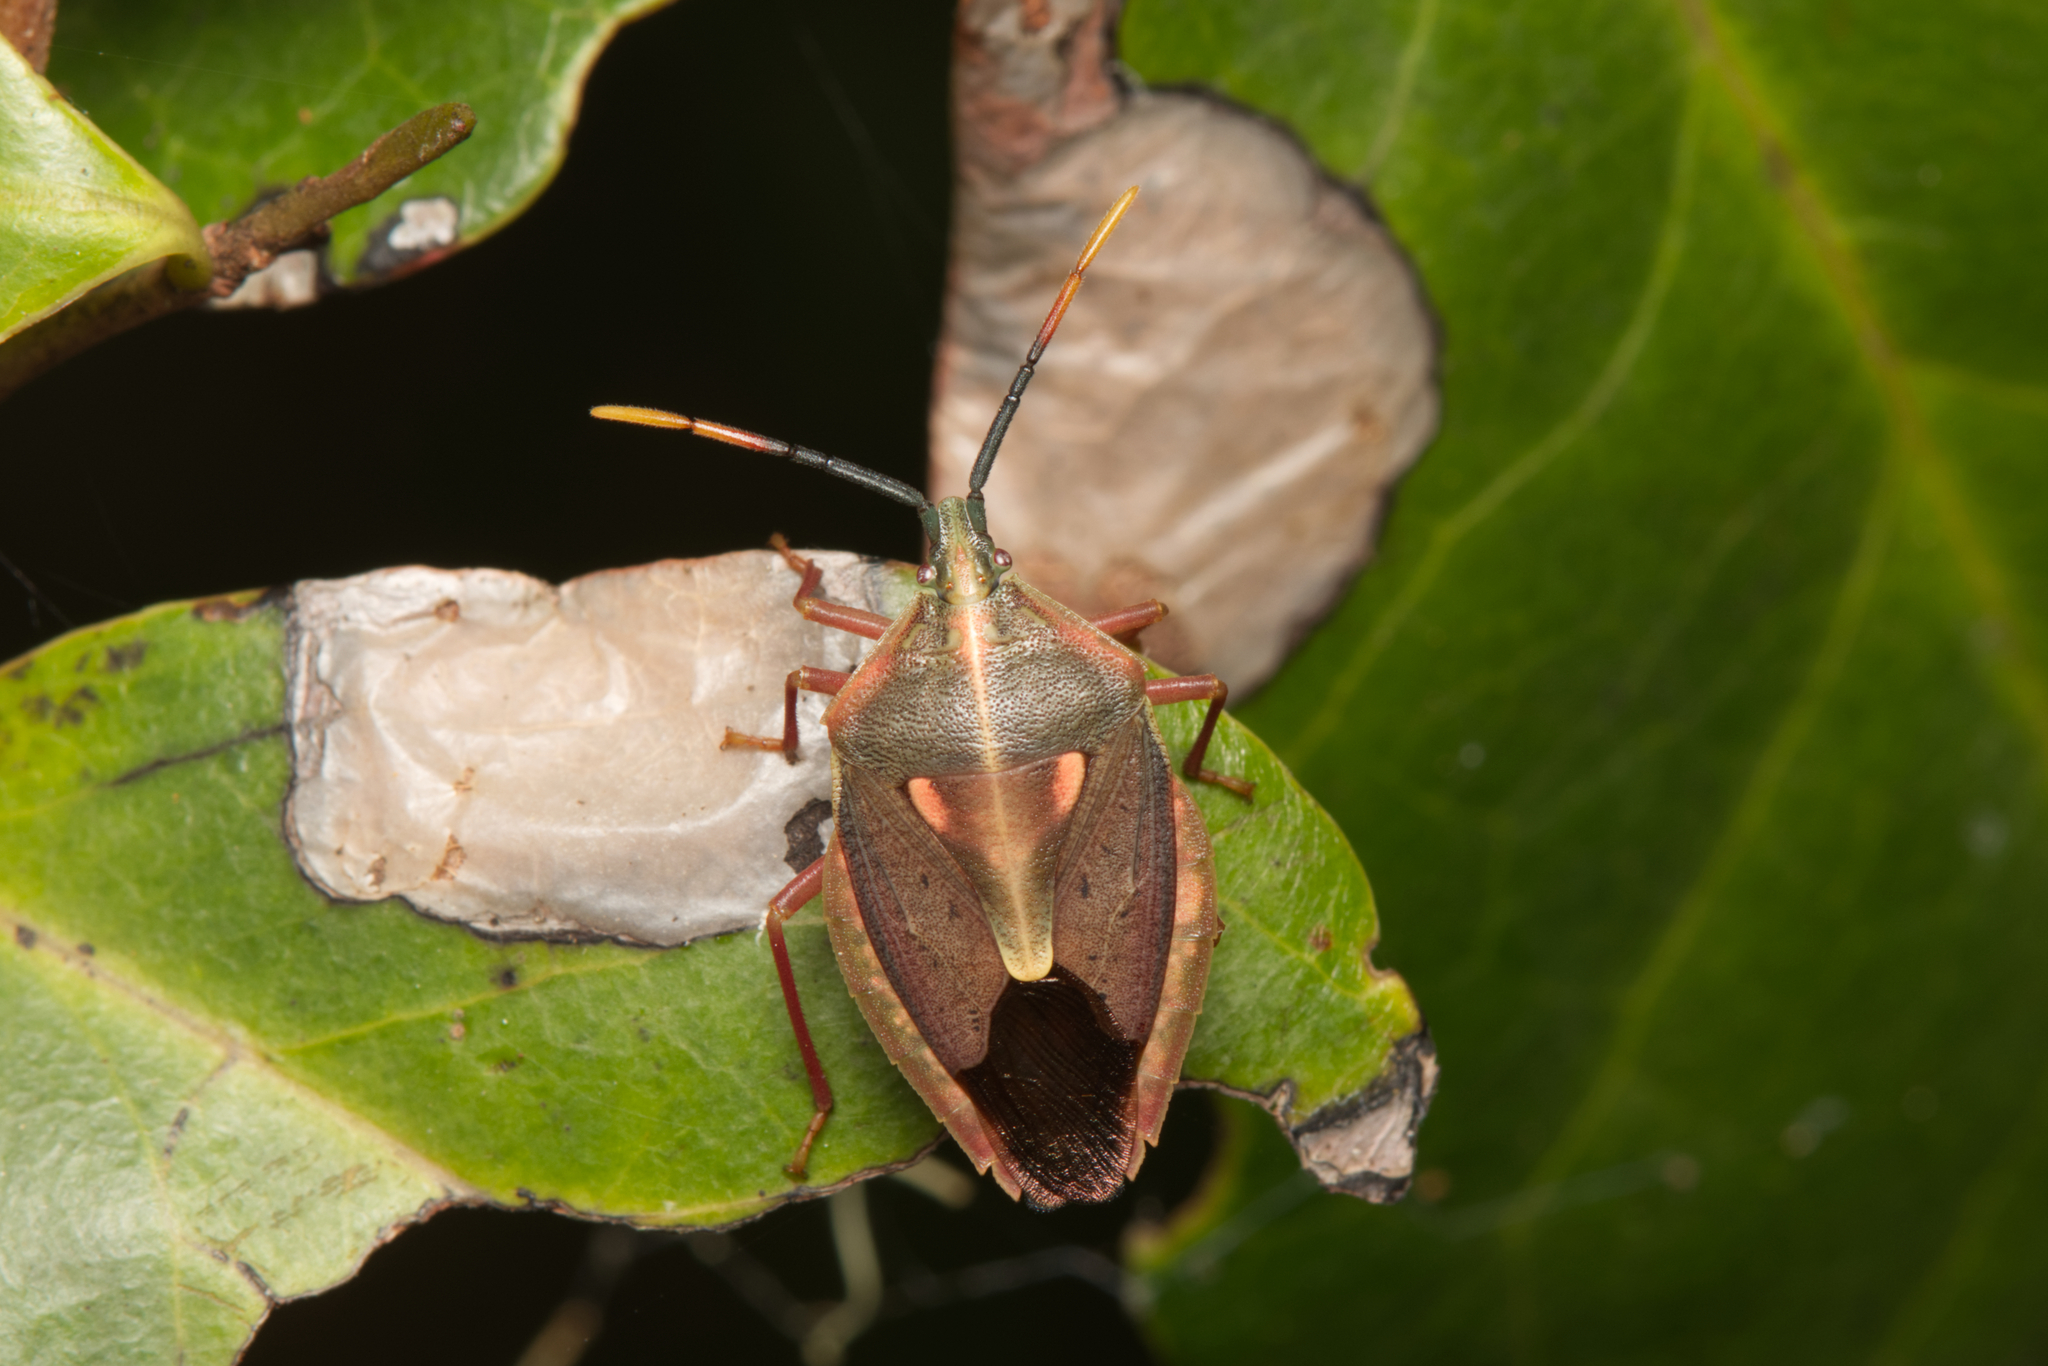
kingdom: Animalia
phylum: Arthropoda
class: Insecta
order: Hemiptera
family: Tessaratomidae
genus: Erga
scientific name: Erga longitudinalis
